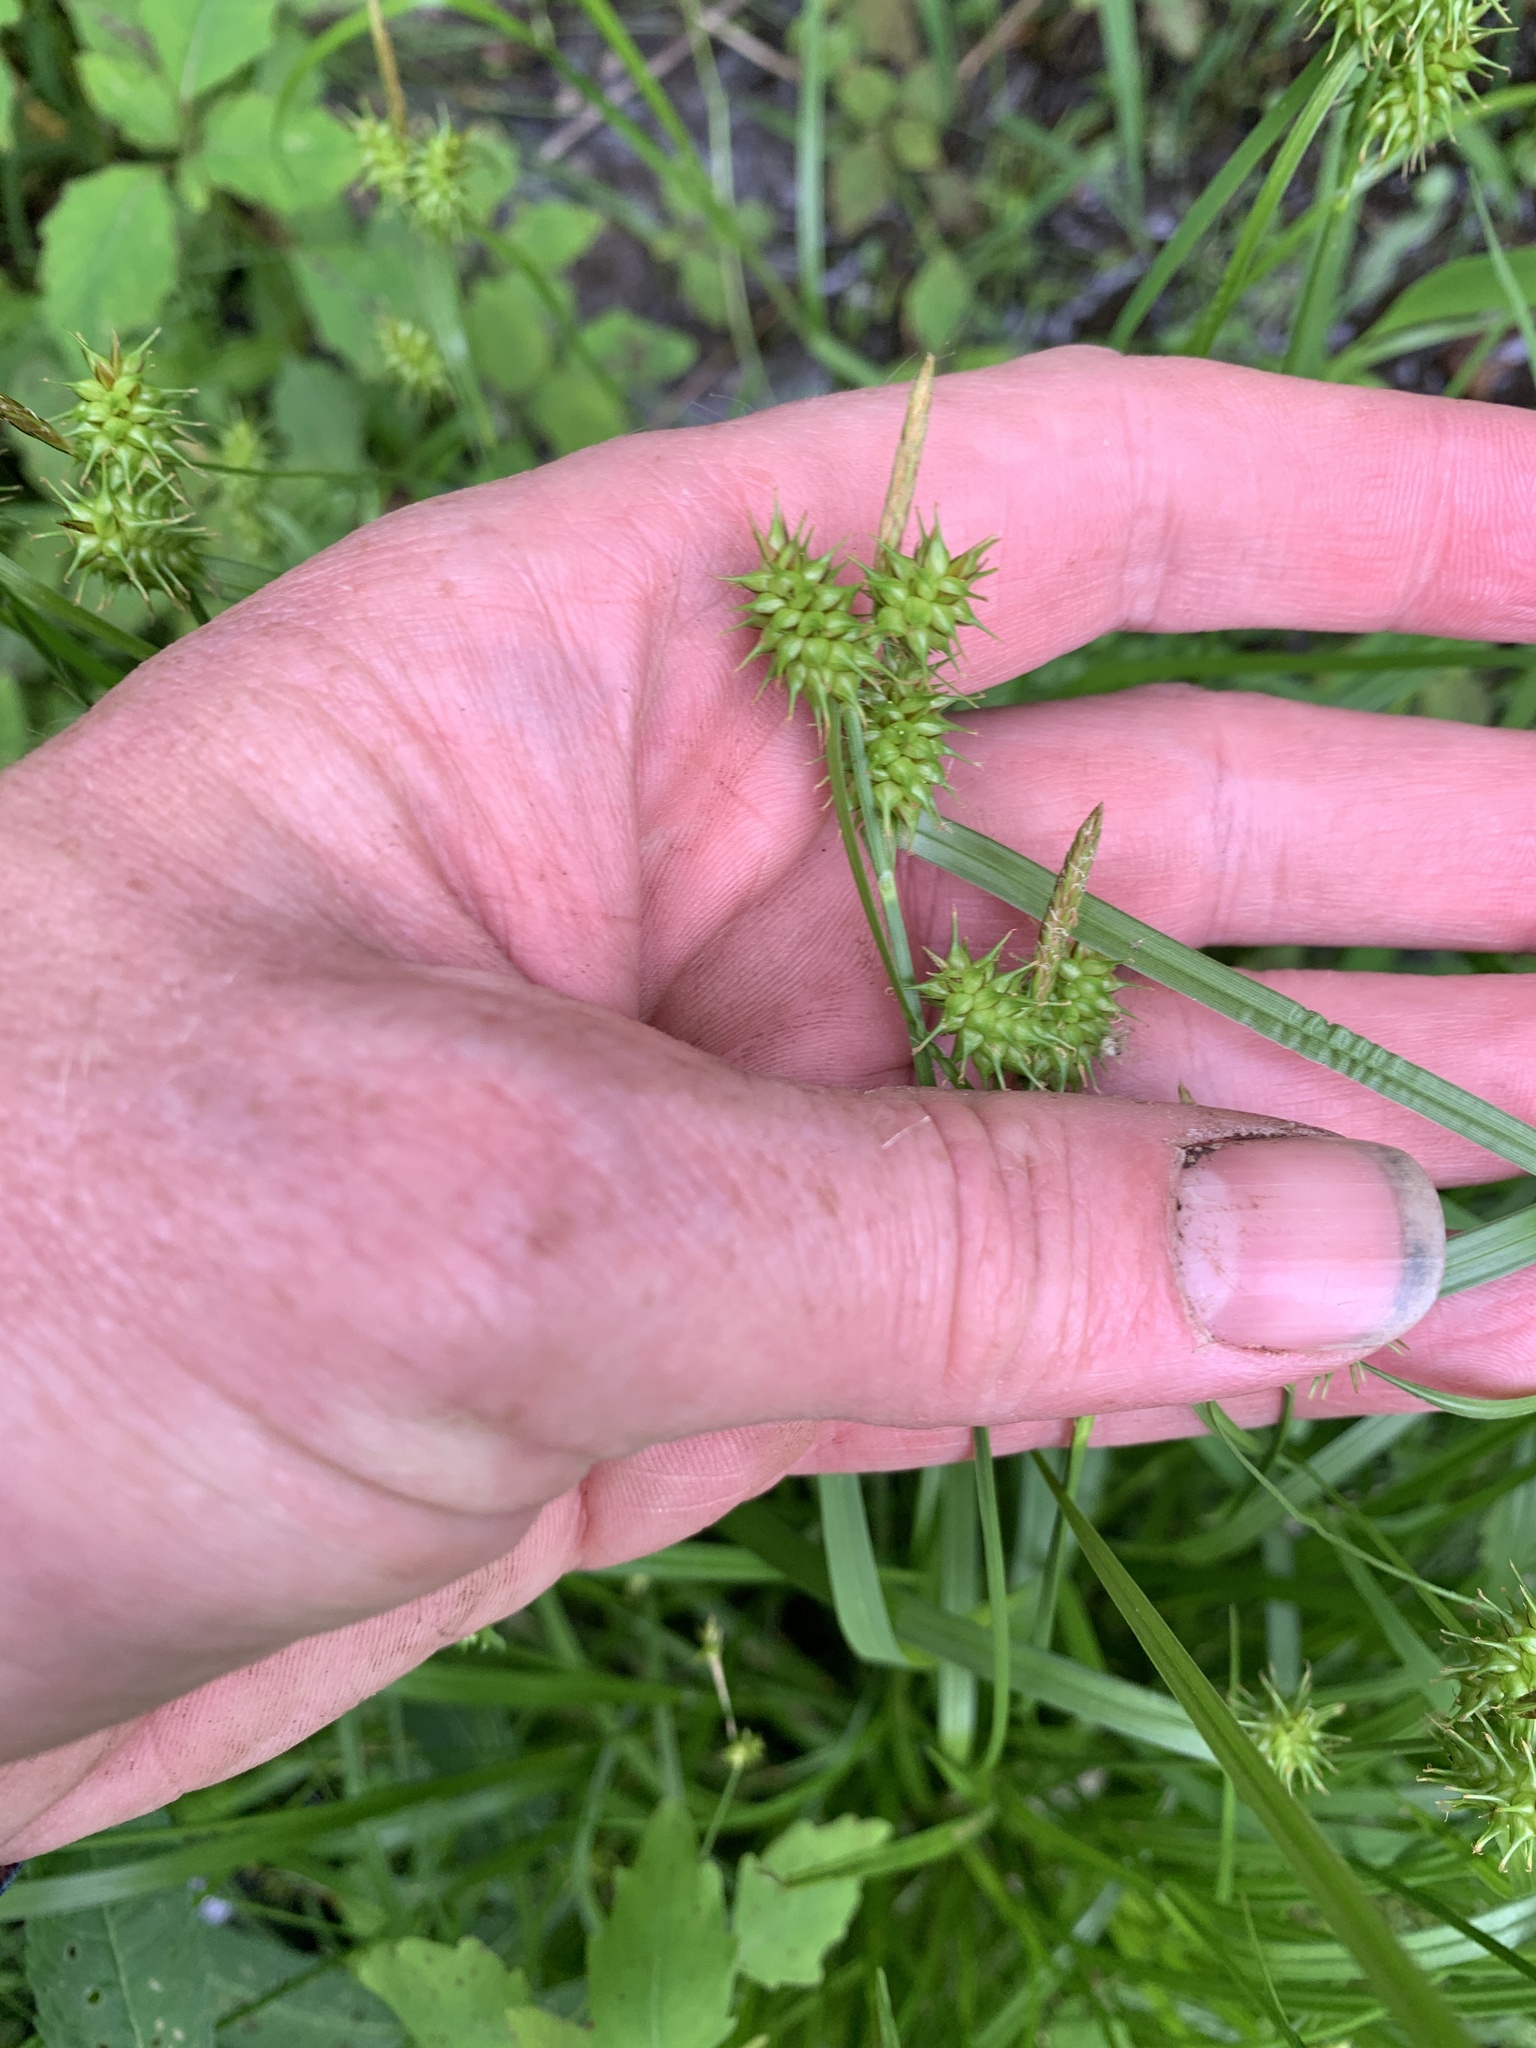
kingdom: Plantae
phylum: Tracheophyta
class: Liliopsida
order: Poales
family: Cyperaceae
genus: Carex
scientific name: Carex flava
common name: Large yellow-sedge
